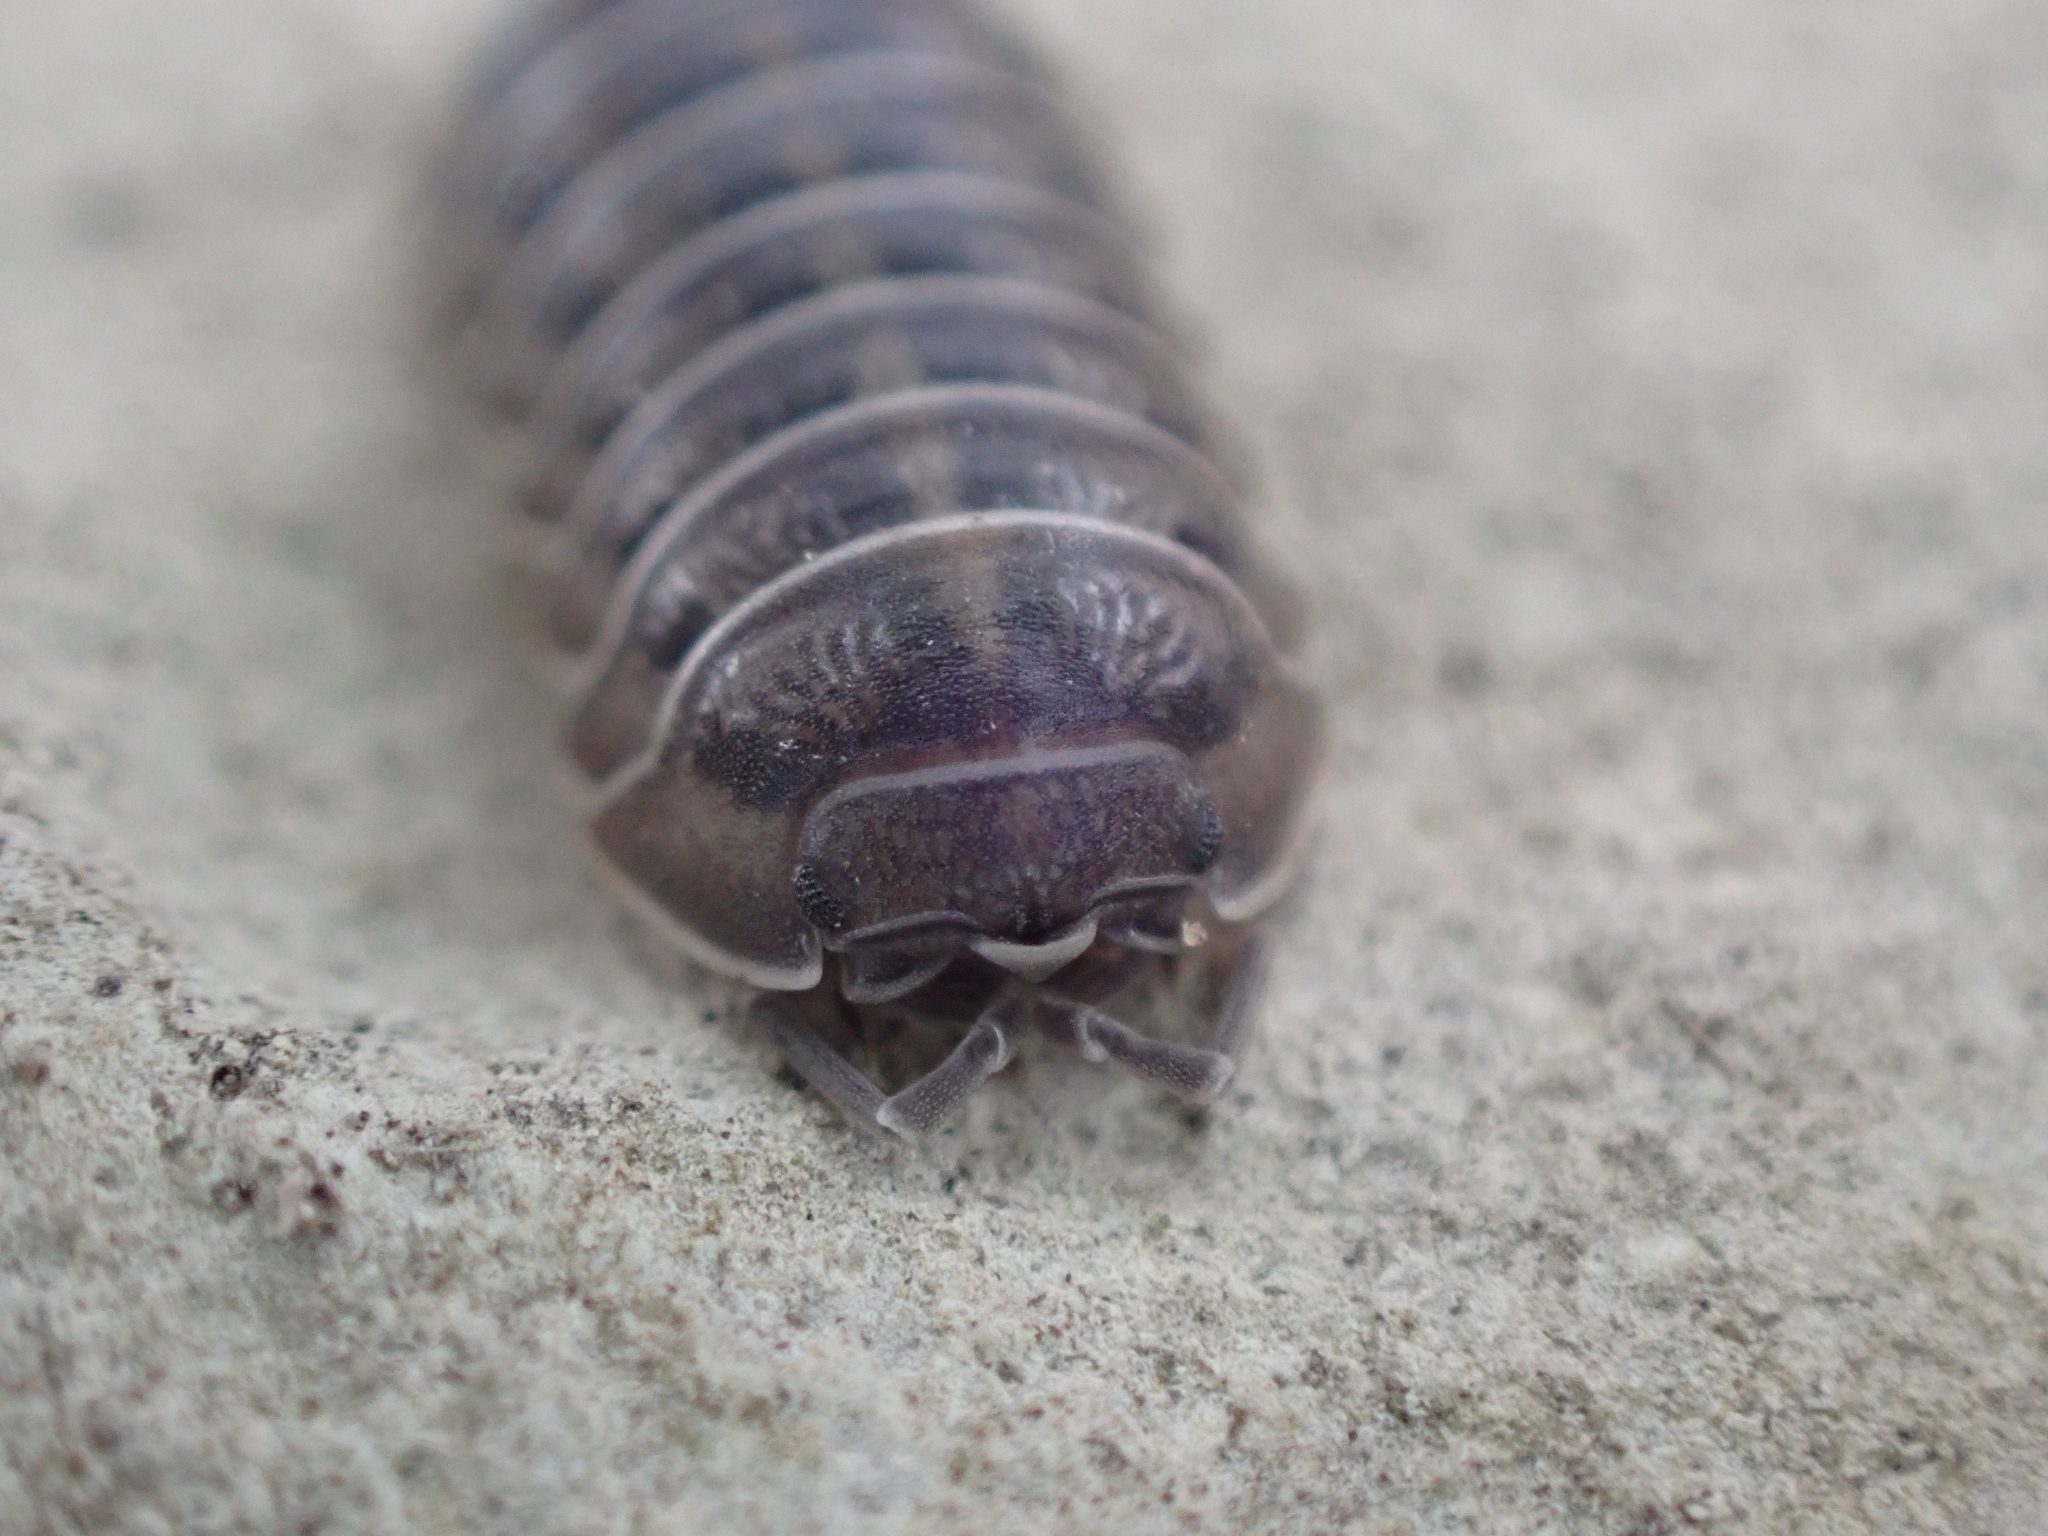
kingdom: Animalia
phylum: Arthropoda
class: Malacostraca
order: Isopoda
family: Armadillidiidae
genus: Armadillidium
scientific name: Armadillidium nasatum
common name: Isopod
